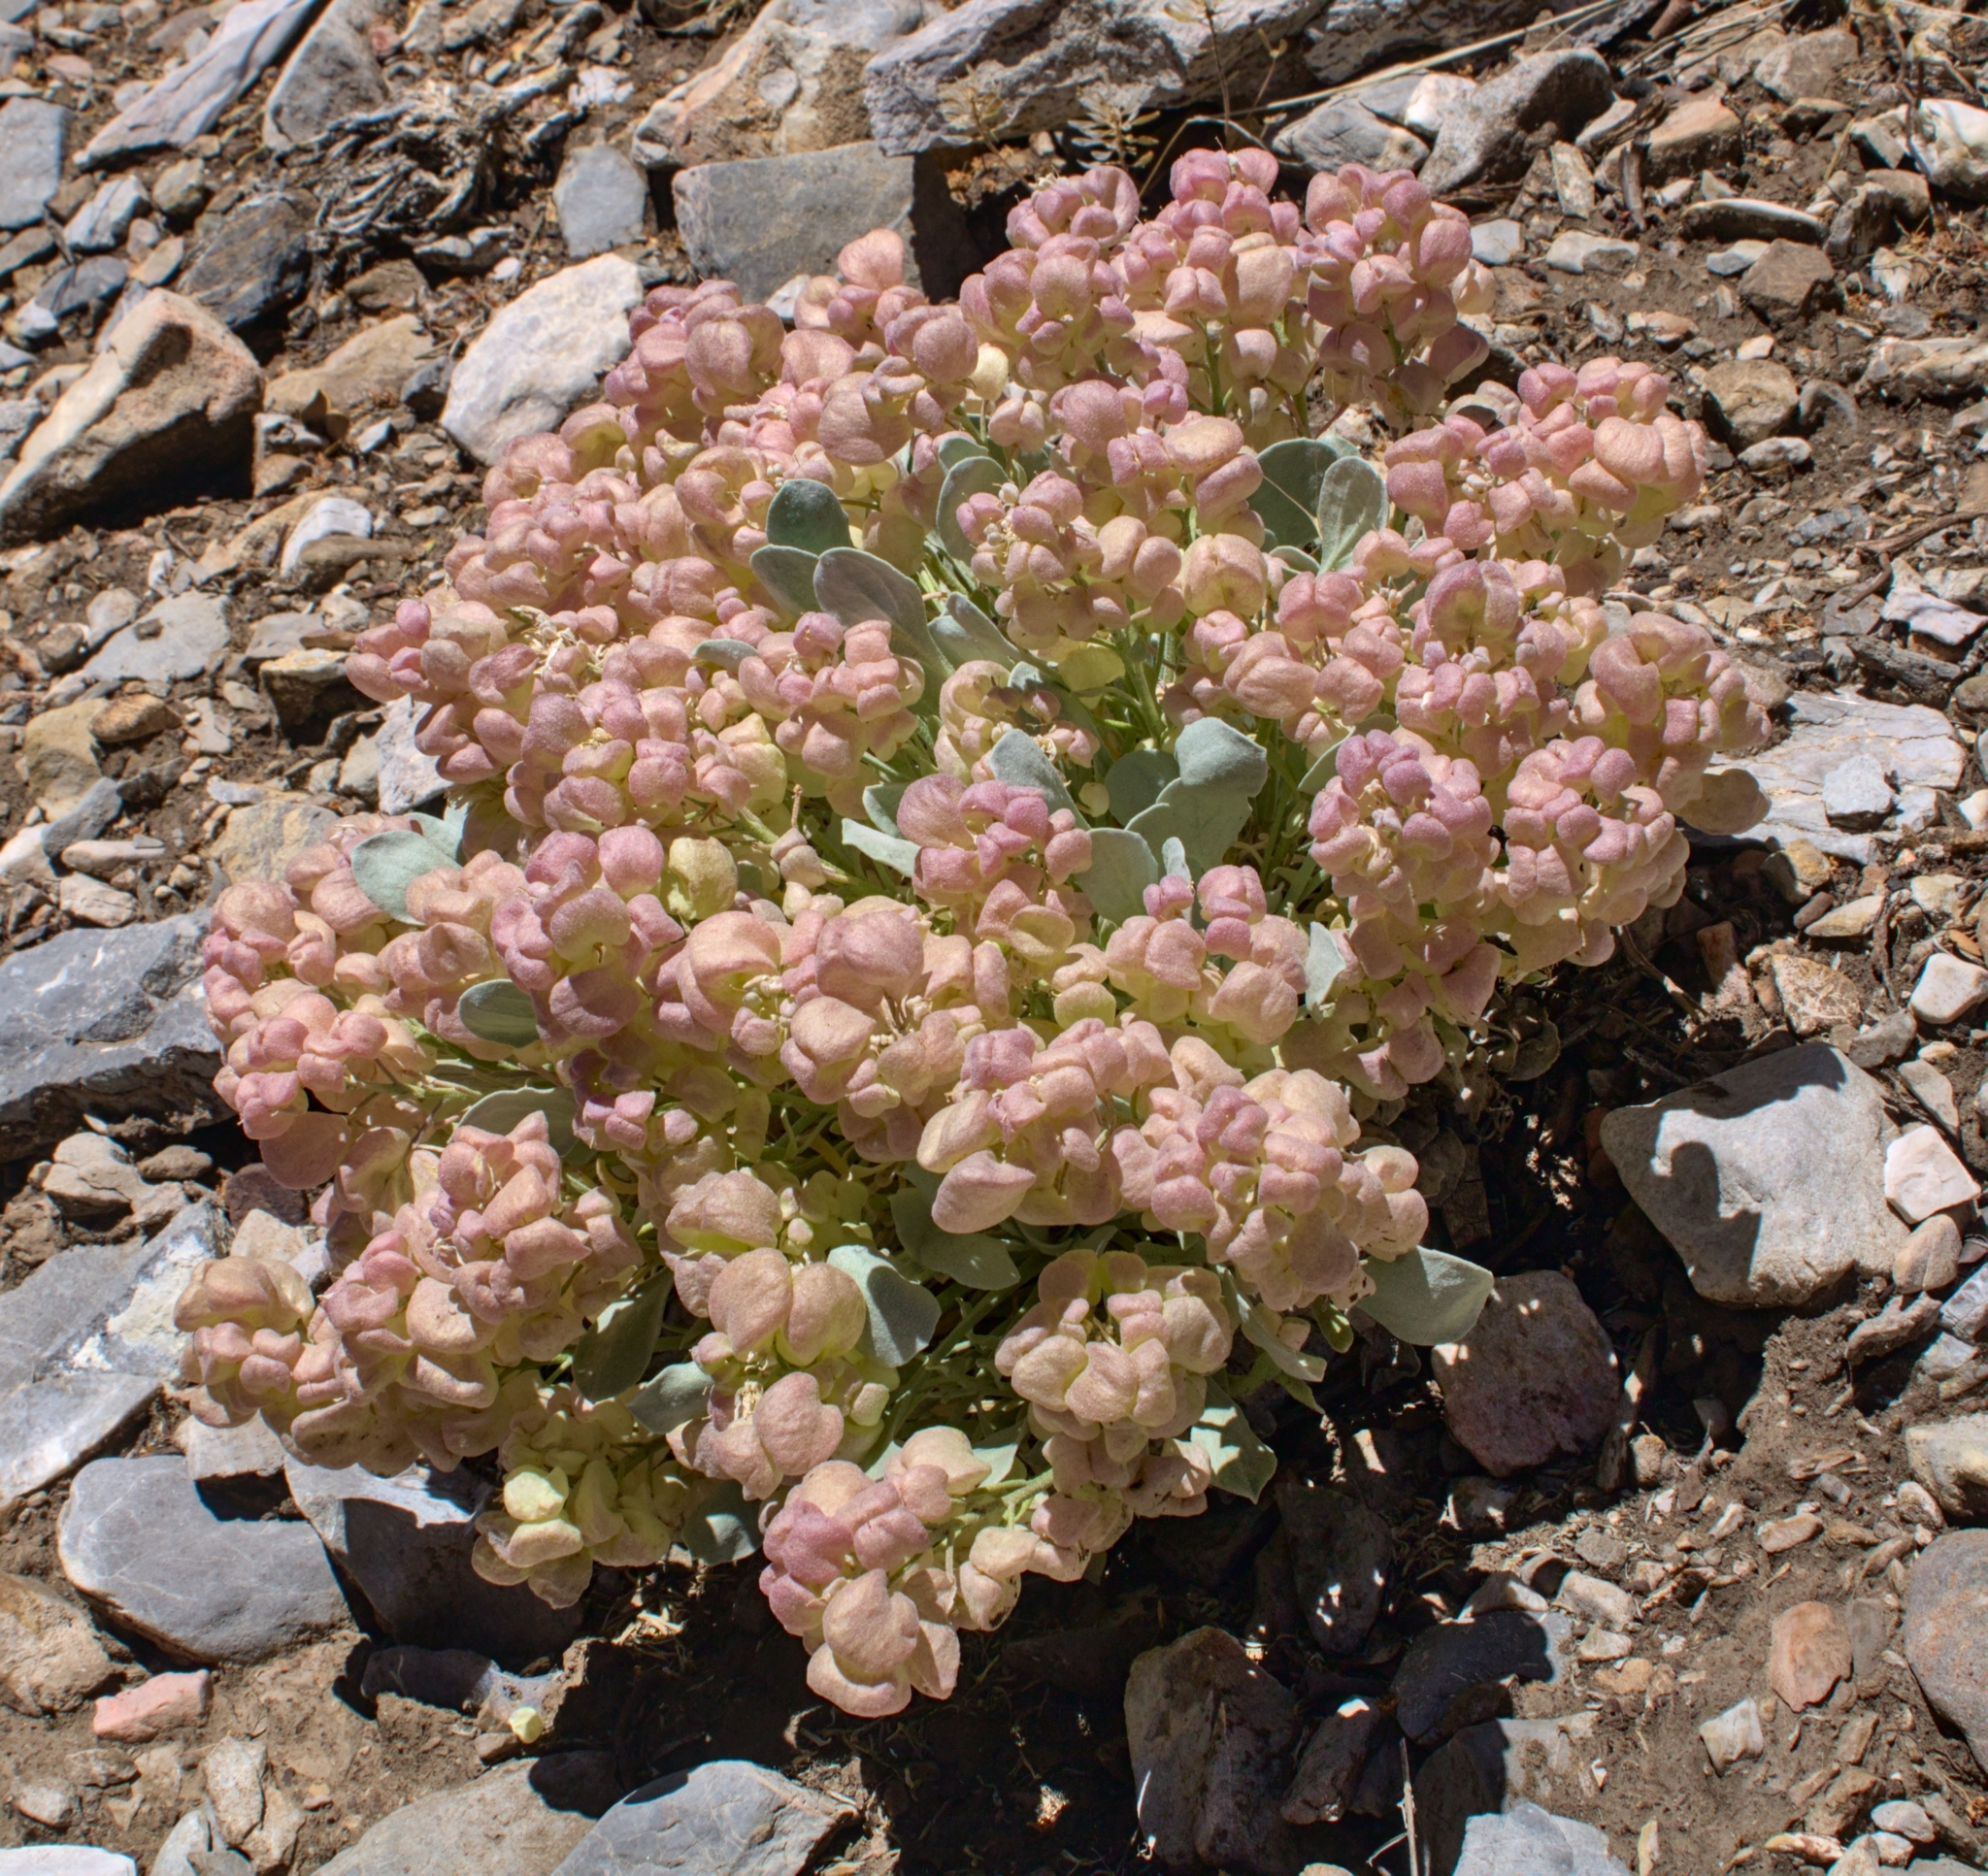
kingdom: Plantae
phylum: Tracheophyta
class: Magnoliopsida
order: Brassicales
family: Brassicaceae
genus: Physaria
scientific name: Physaria chambersii
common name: Chamber's twinpod
